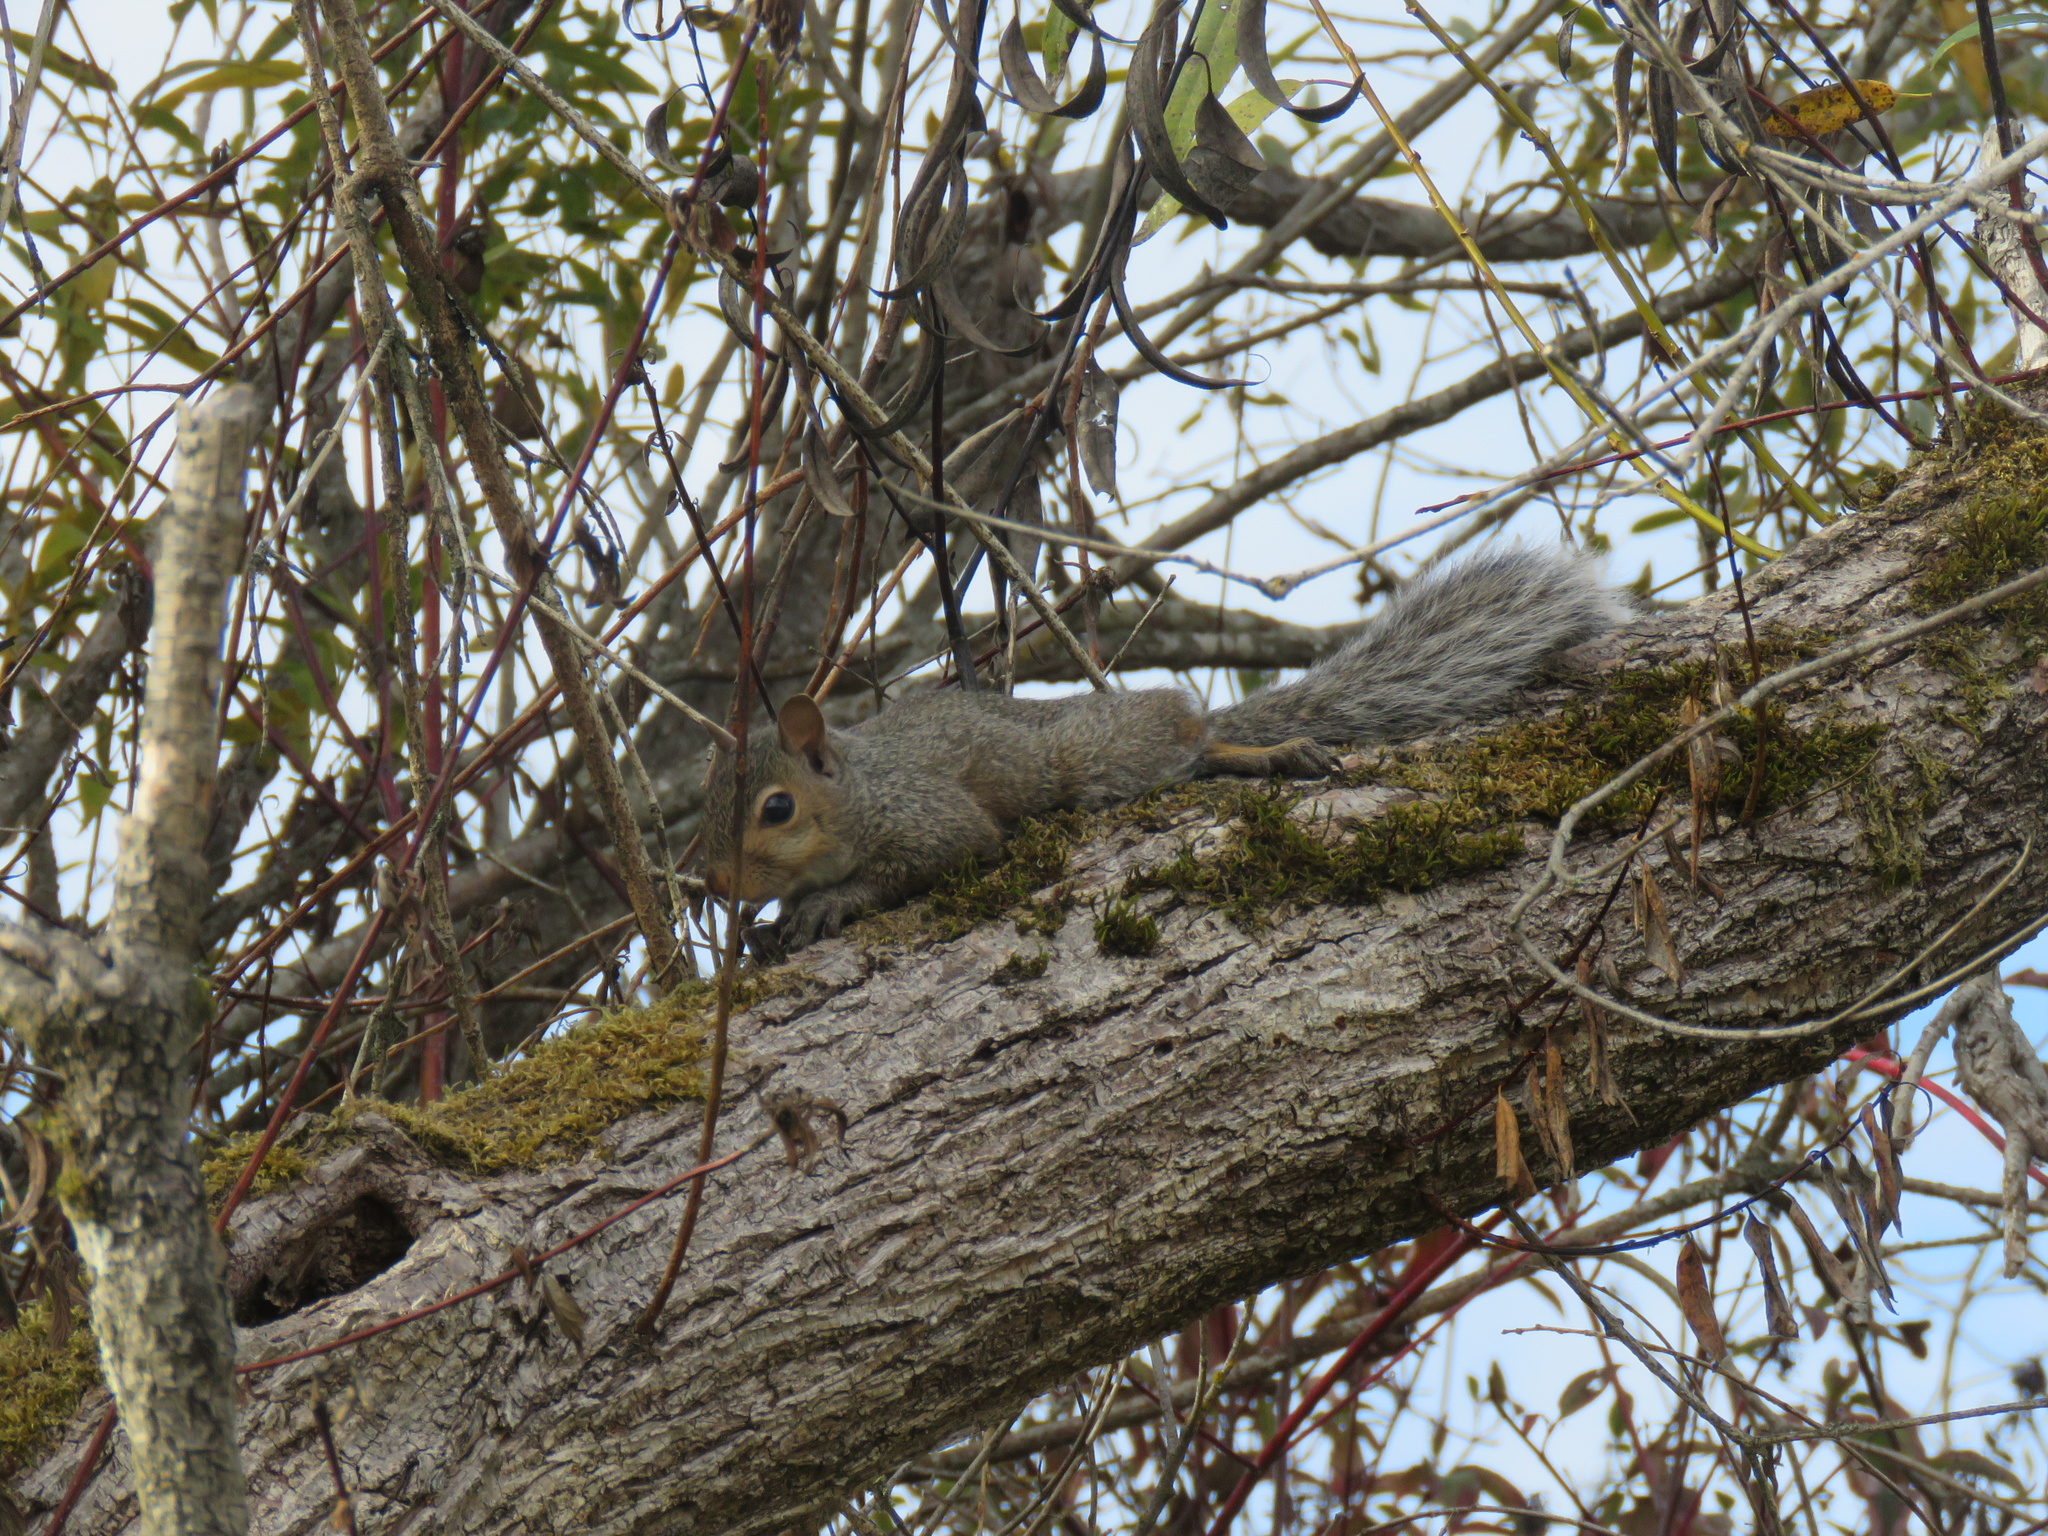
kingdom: Animalia
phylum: Chordata
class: Mammalia
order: Rodentia
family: Sciuridae
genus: Sciurus
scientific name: Sciurus carolinensis
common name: Eastern gray squirrel
